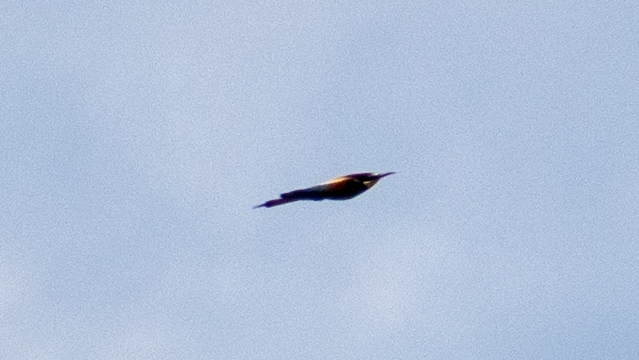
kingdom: Animalia
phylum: Chordata
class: Aves
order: Coraciiformes
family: Meropidae
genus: Merops
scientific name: Merops apiaster
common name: European bee-eater
